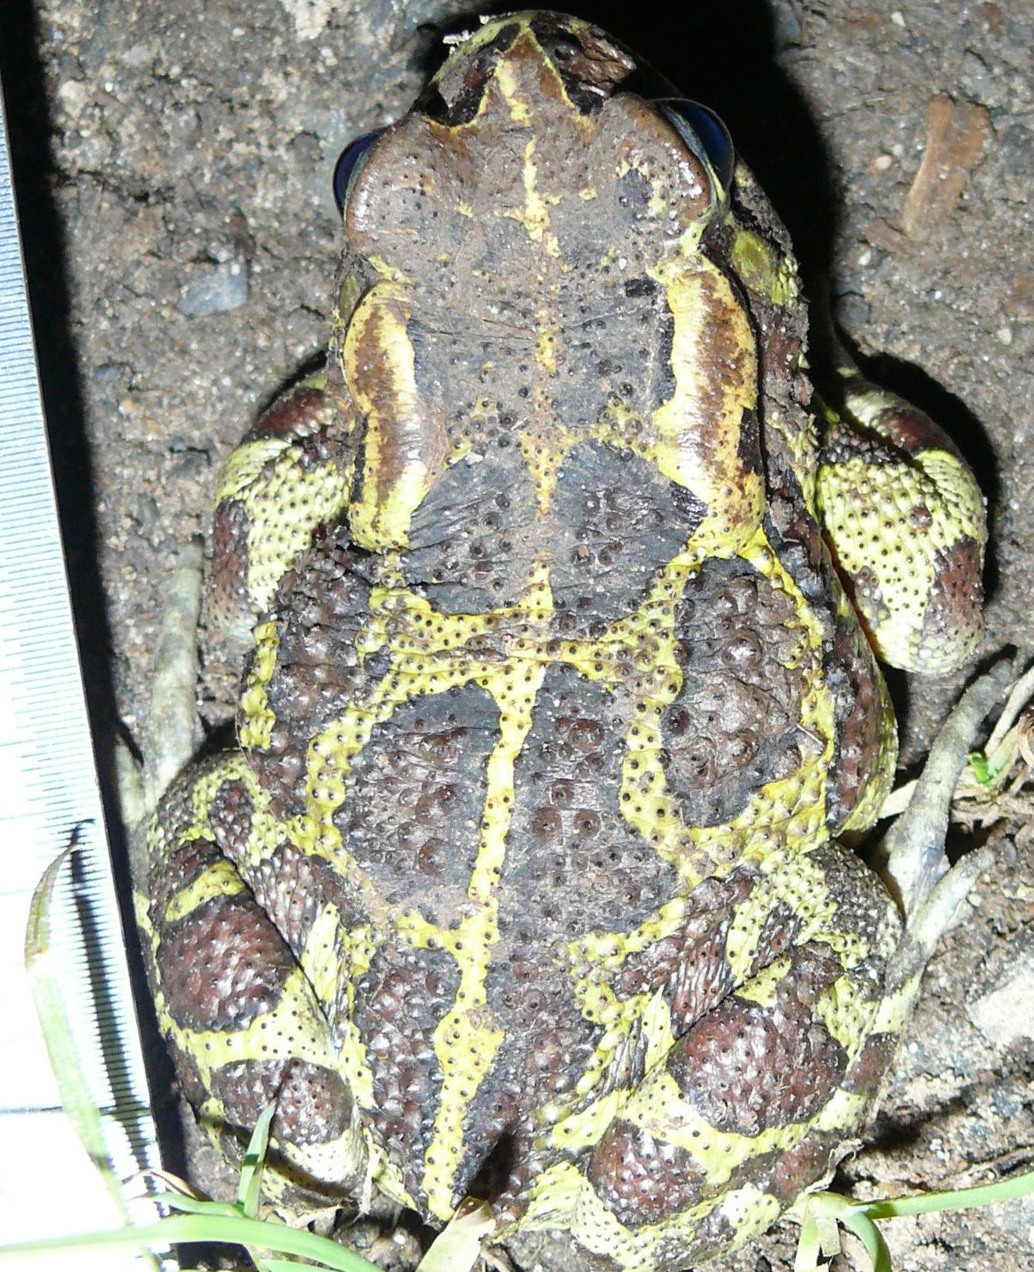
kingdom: Animalia
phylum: Chordata
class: Amphibia
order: Anura
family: Bufonidae
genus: Sclerophrys
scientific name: Sclerophrys pantherina
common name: Panther toad
